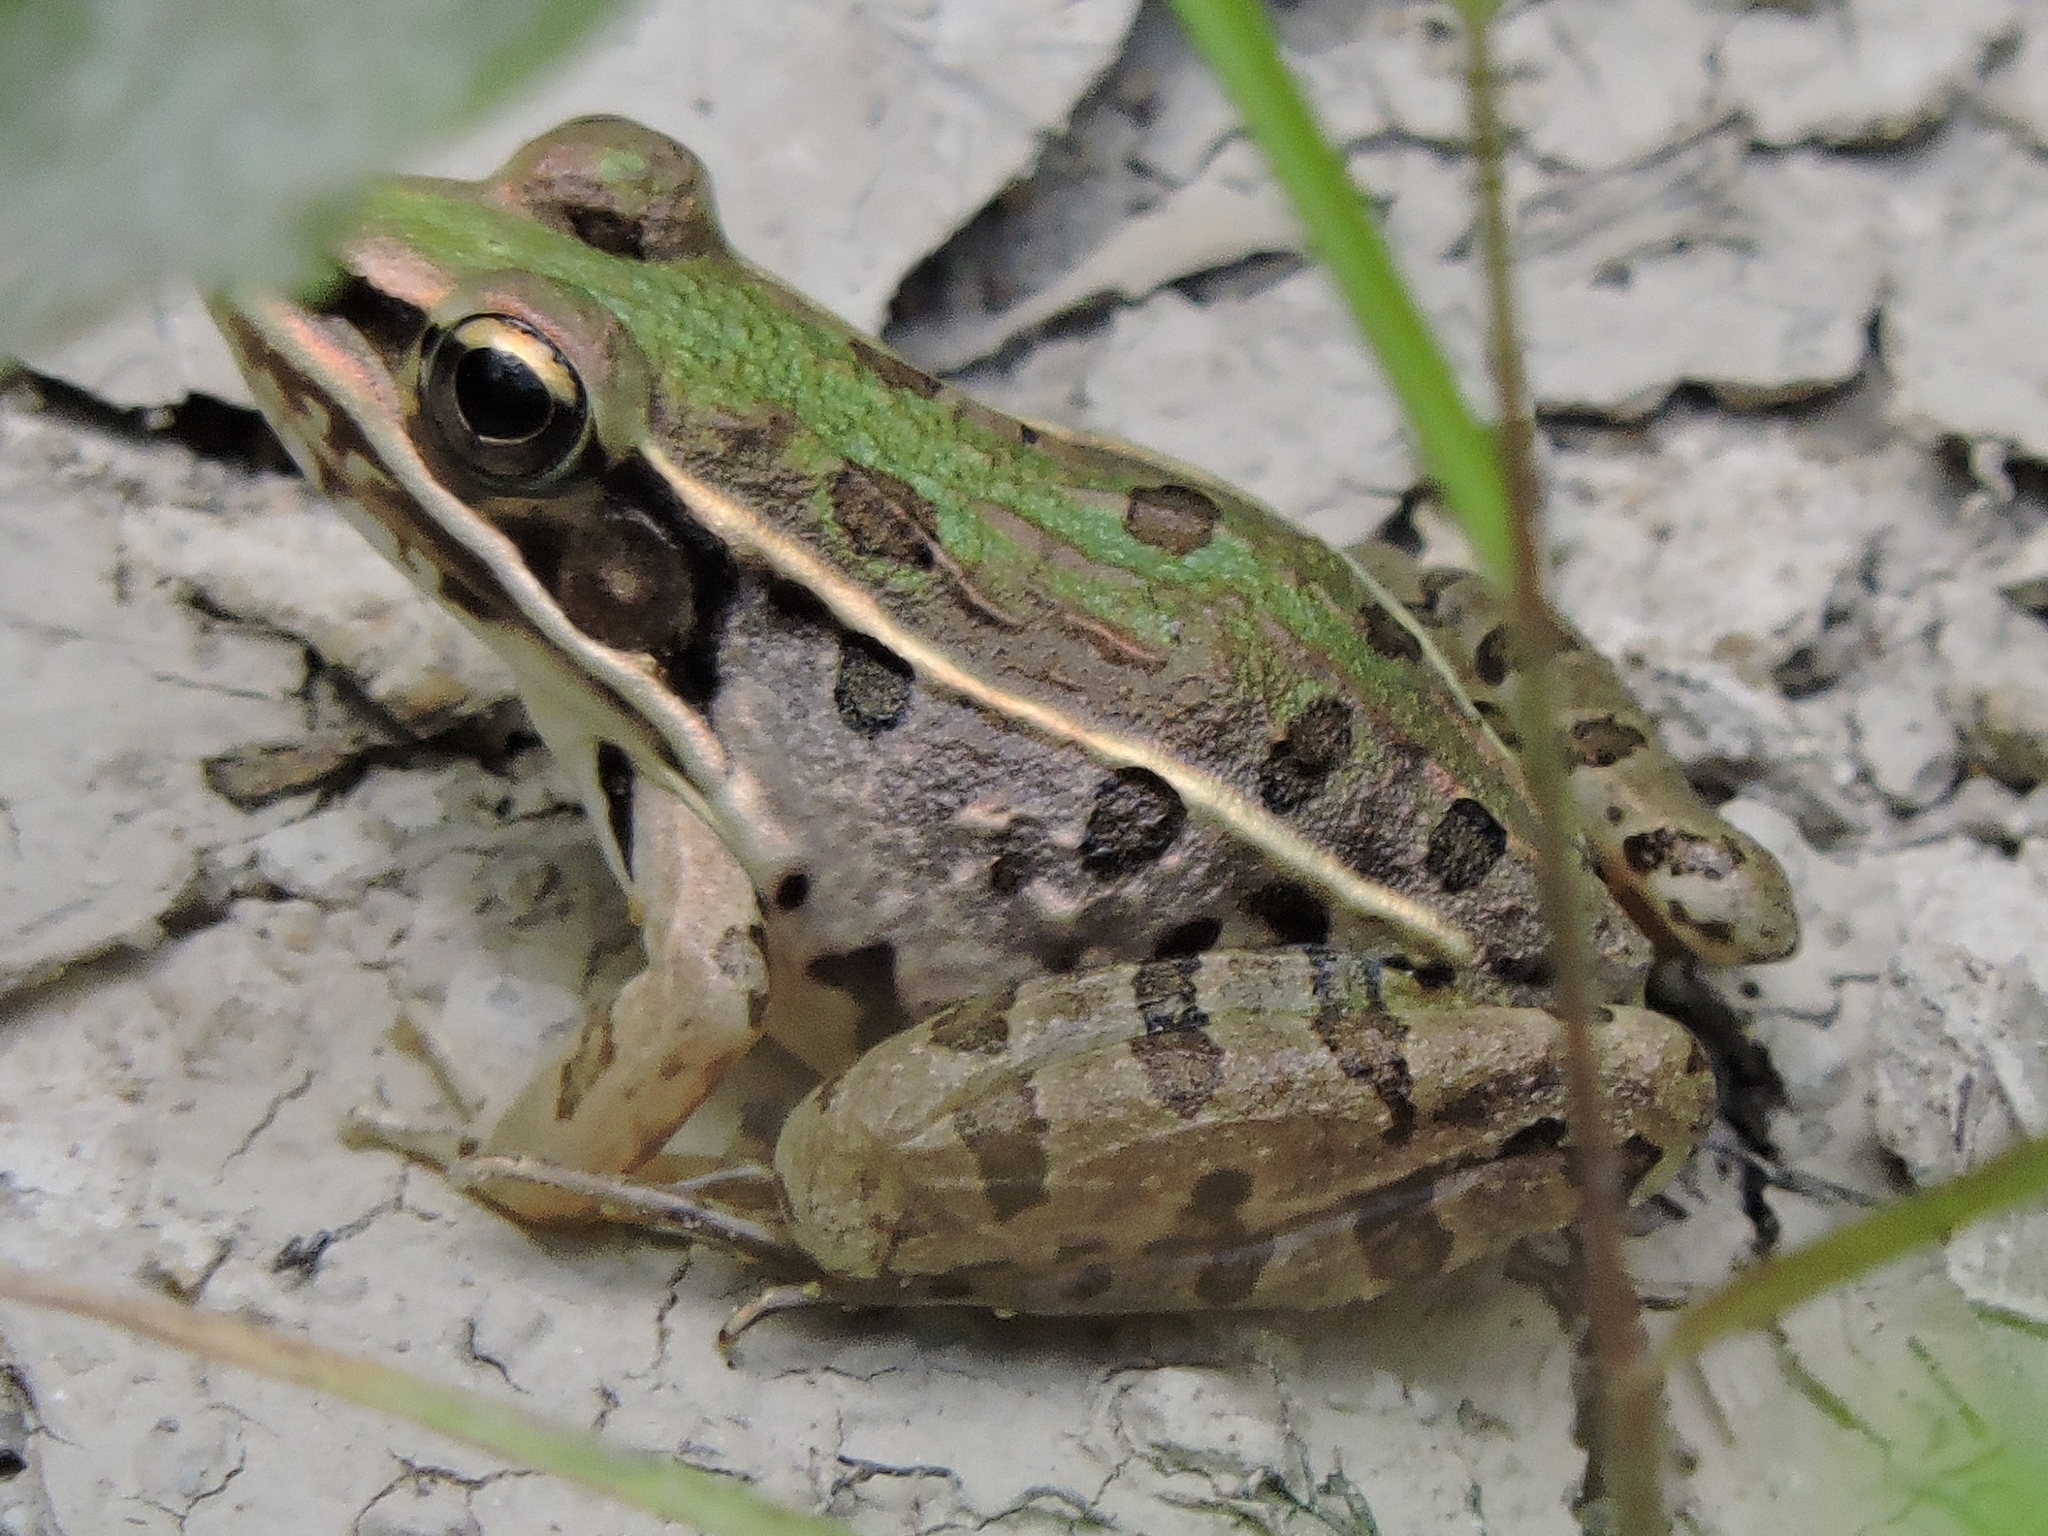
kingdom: Animalia
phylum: Chordata
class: Amphibia
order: Anura
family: Ranidae
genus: Lithobates
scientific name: Lithobates sphenocephalus
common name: Southern leopard frog
